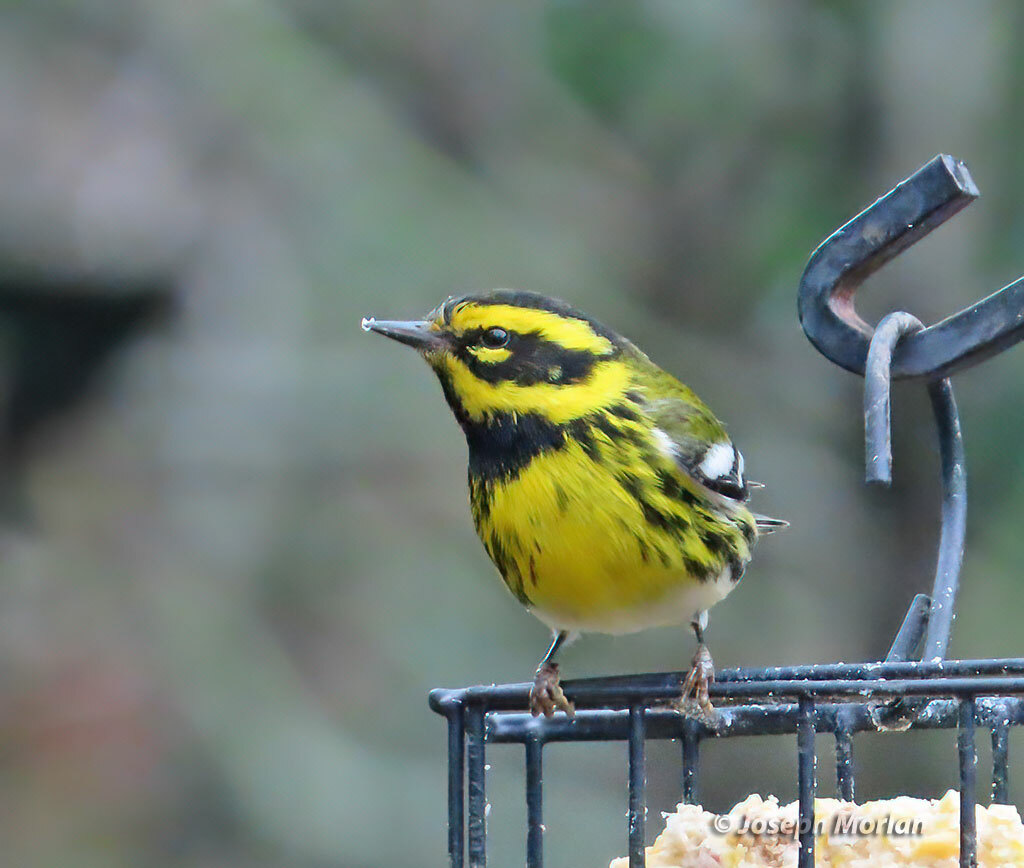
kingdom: Animalia
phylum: Chordata
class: Aves
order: Passeriformes
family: Parulidae
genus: Setophaga
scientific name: Setophaga townsendi
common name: Townsend's warbler
